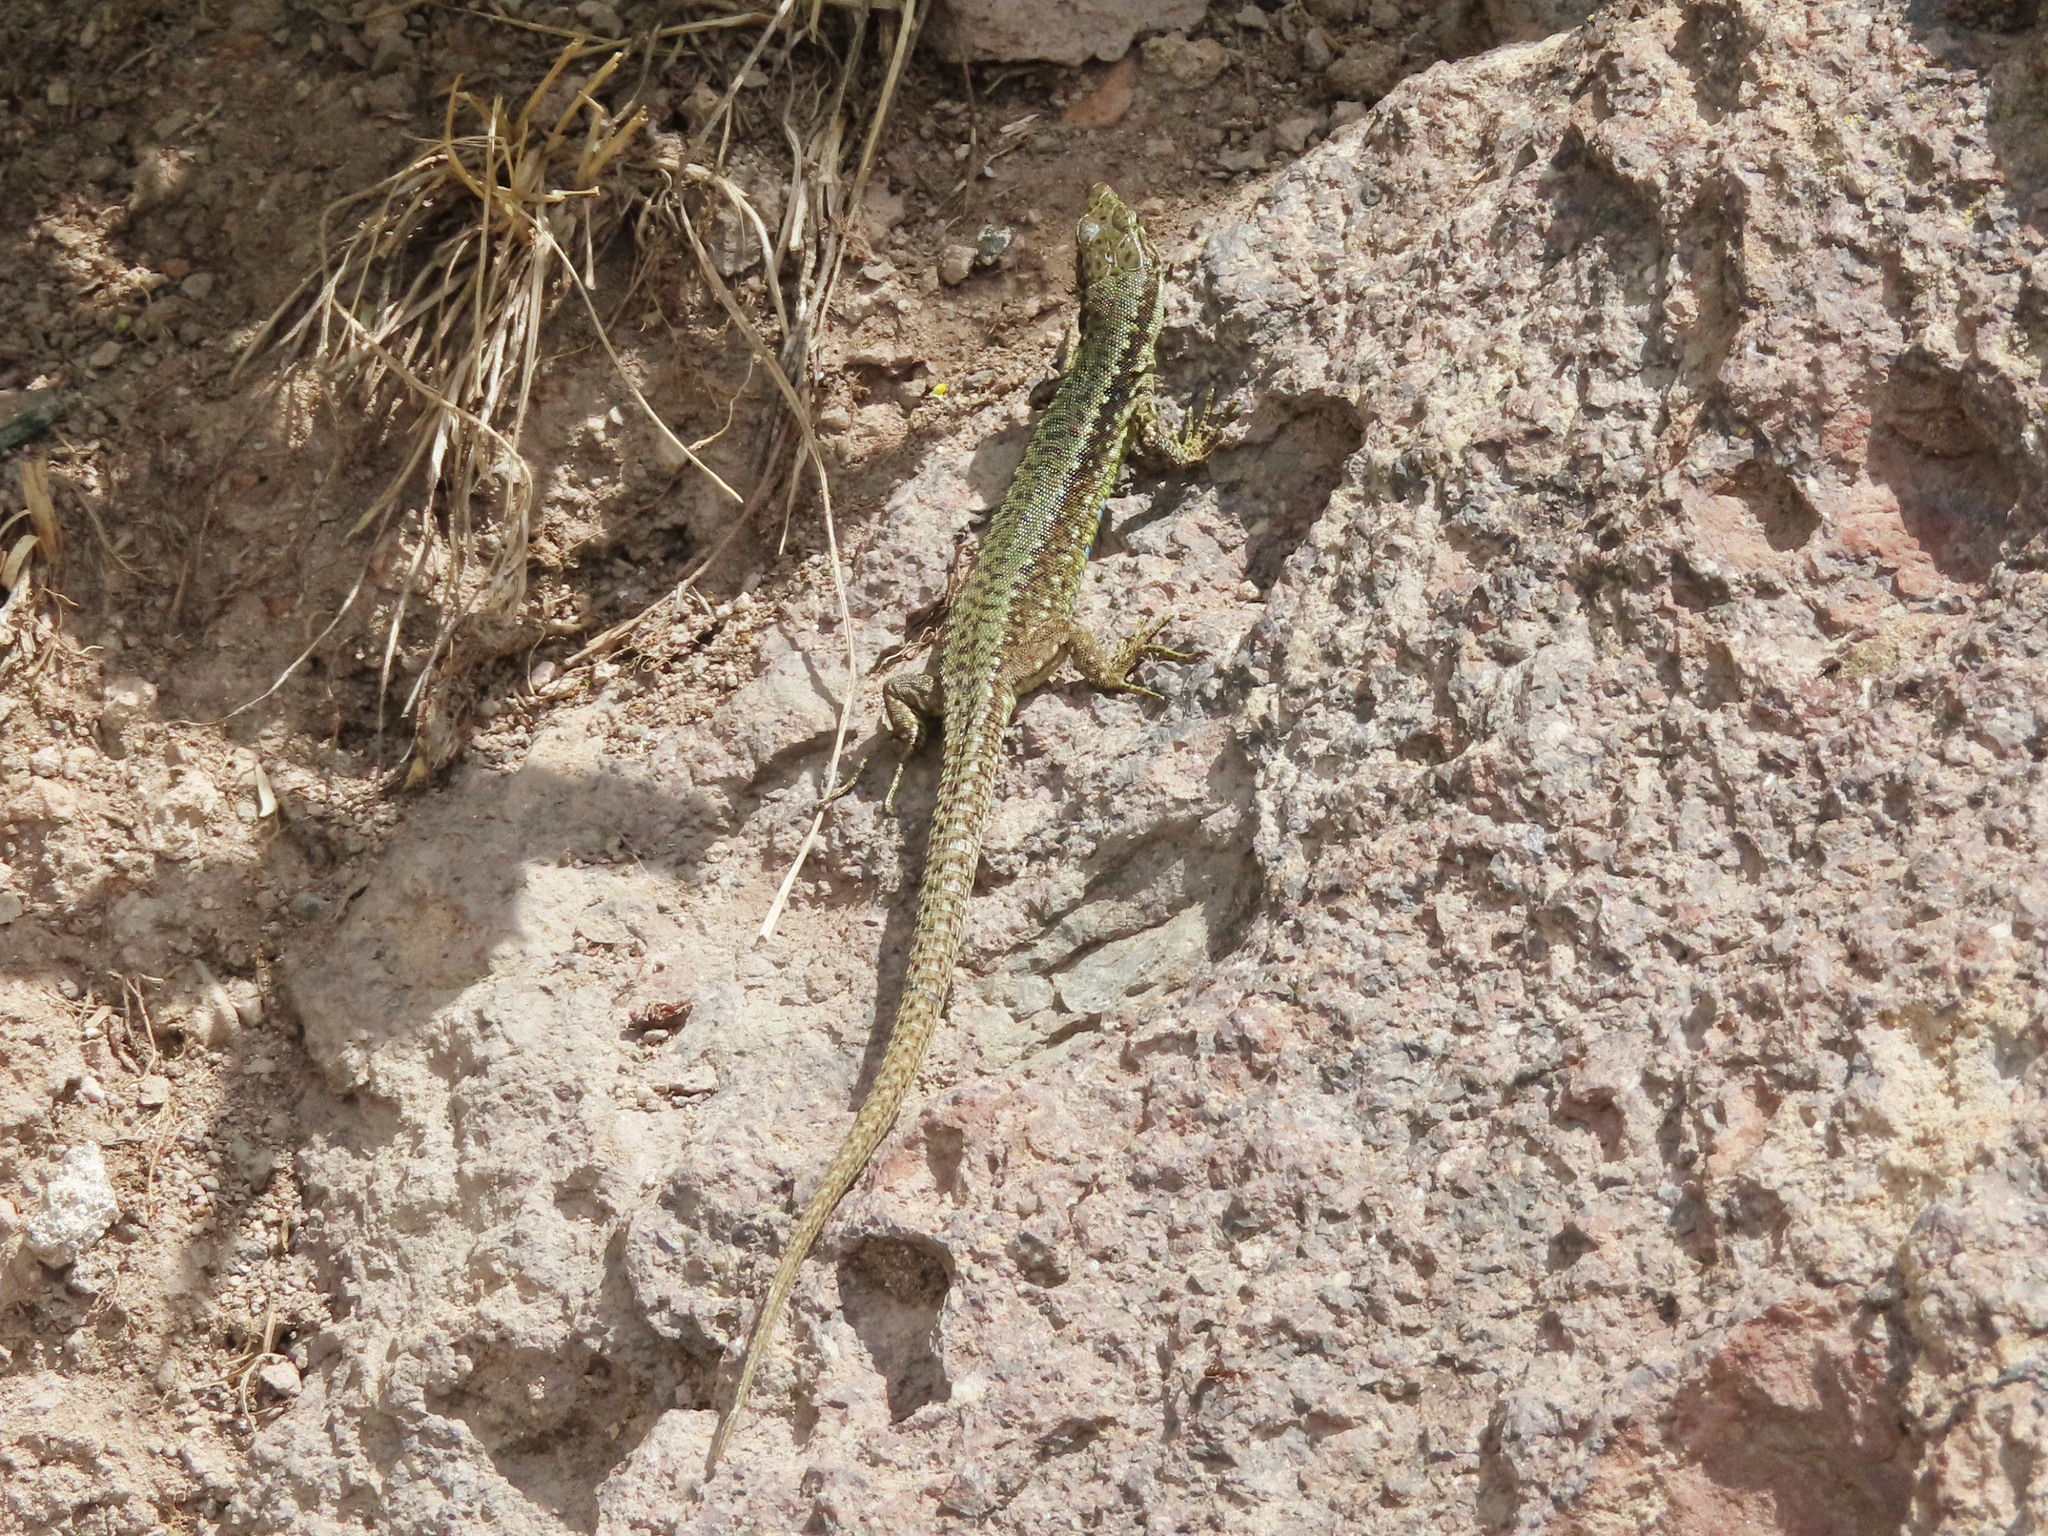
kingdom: Animalia
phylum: Chordata
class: Squamata
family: Lacertidae
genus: Darevskia
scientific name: Darevskia
